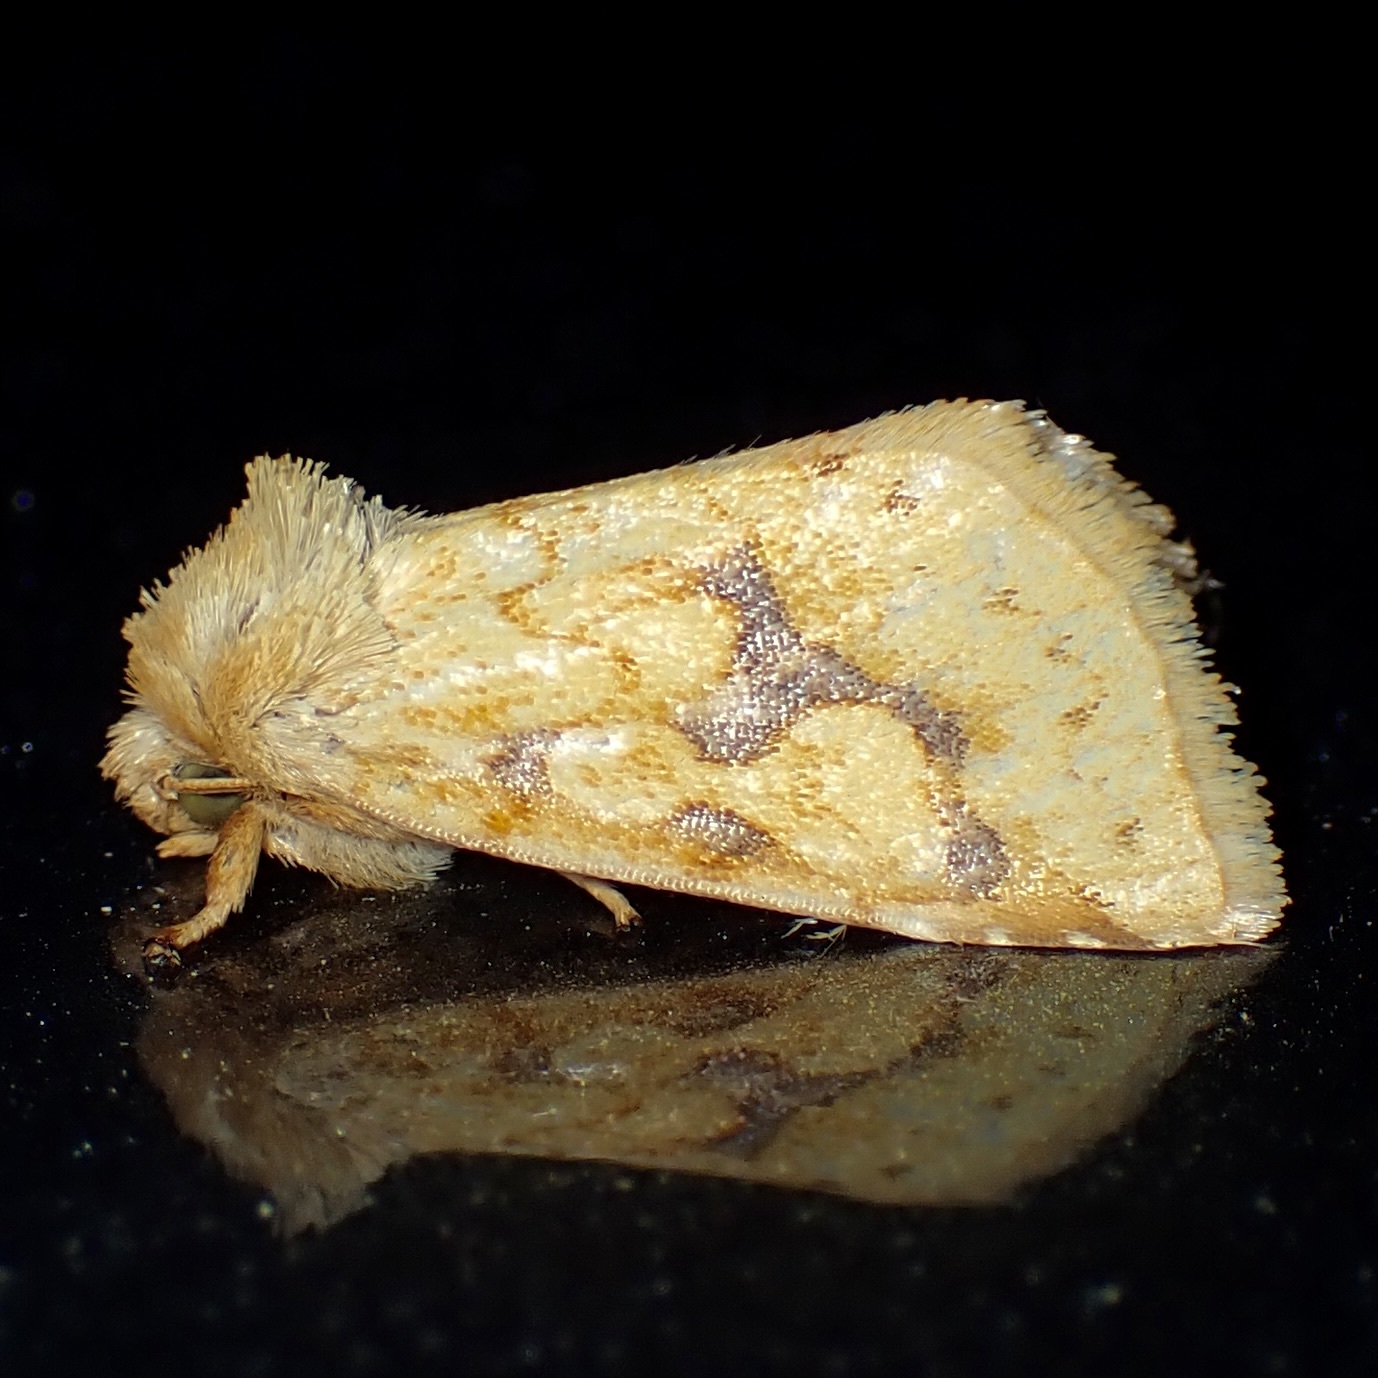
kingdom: Animalia
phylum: Arthropoda
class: Insecta
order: Lepidoptera
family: Noctuidae
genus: Nocloa
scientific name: Nocloa cordova
